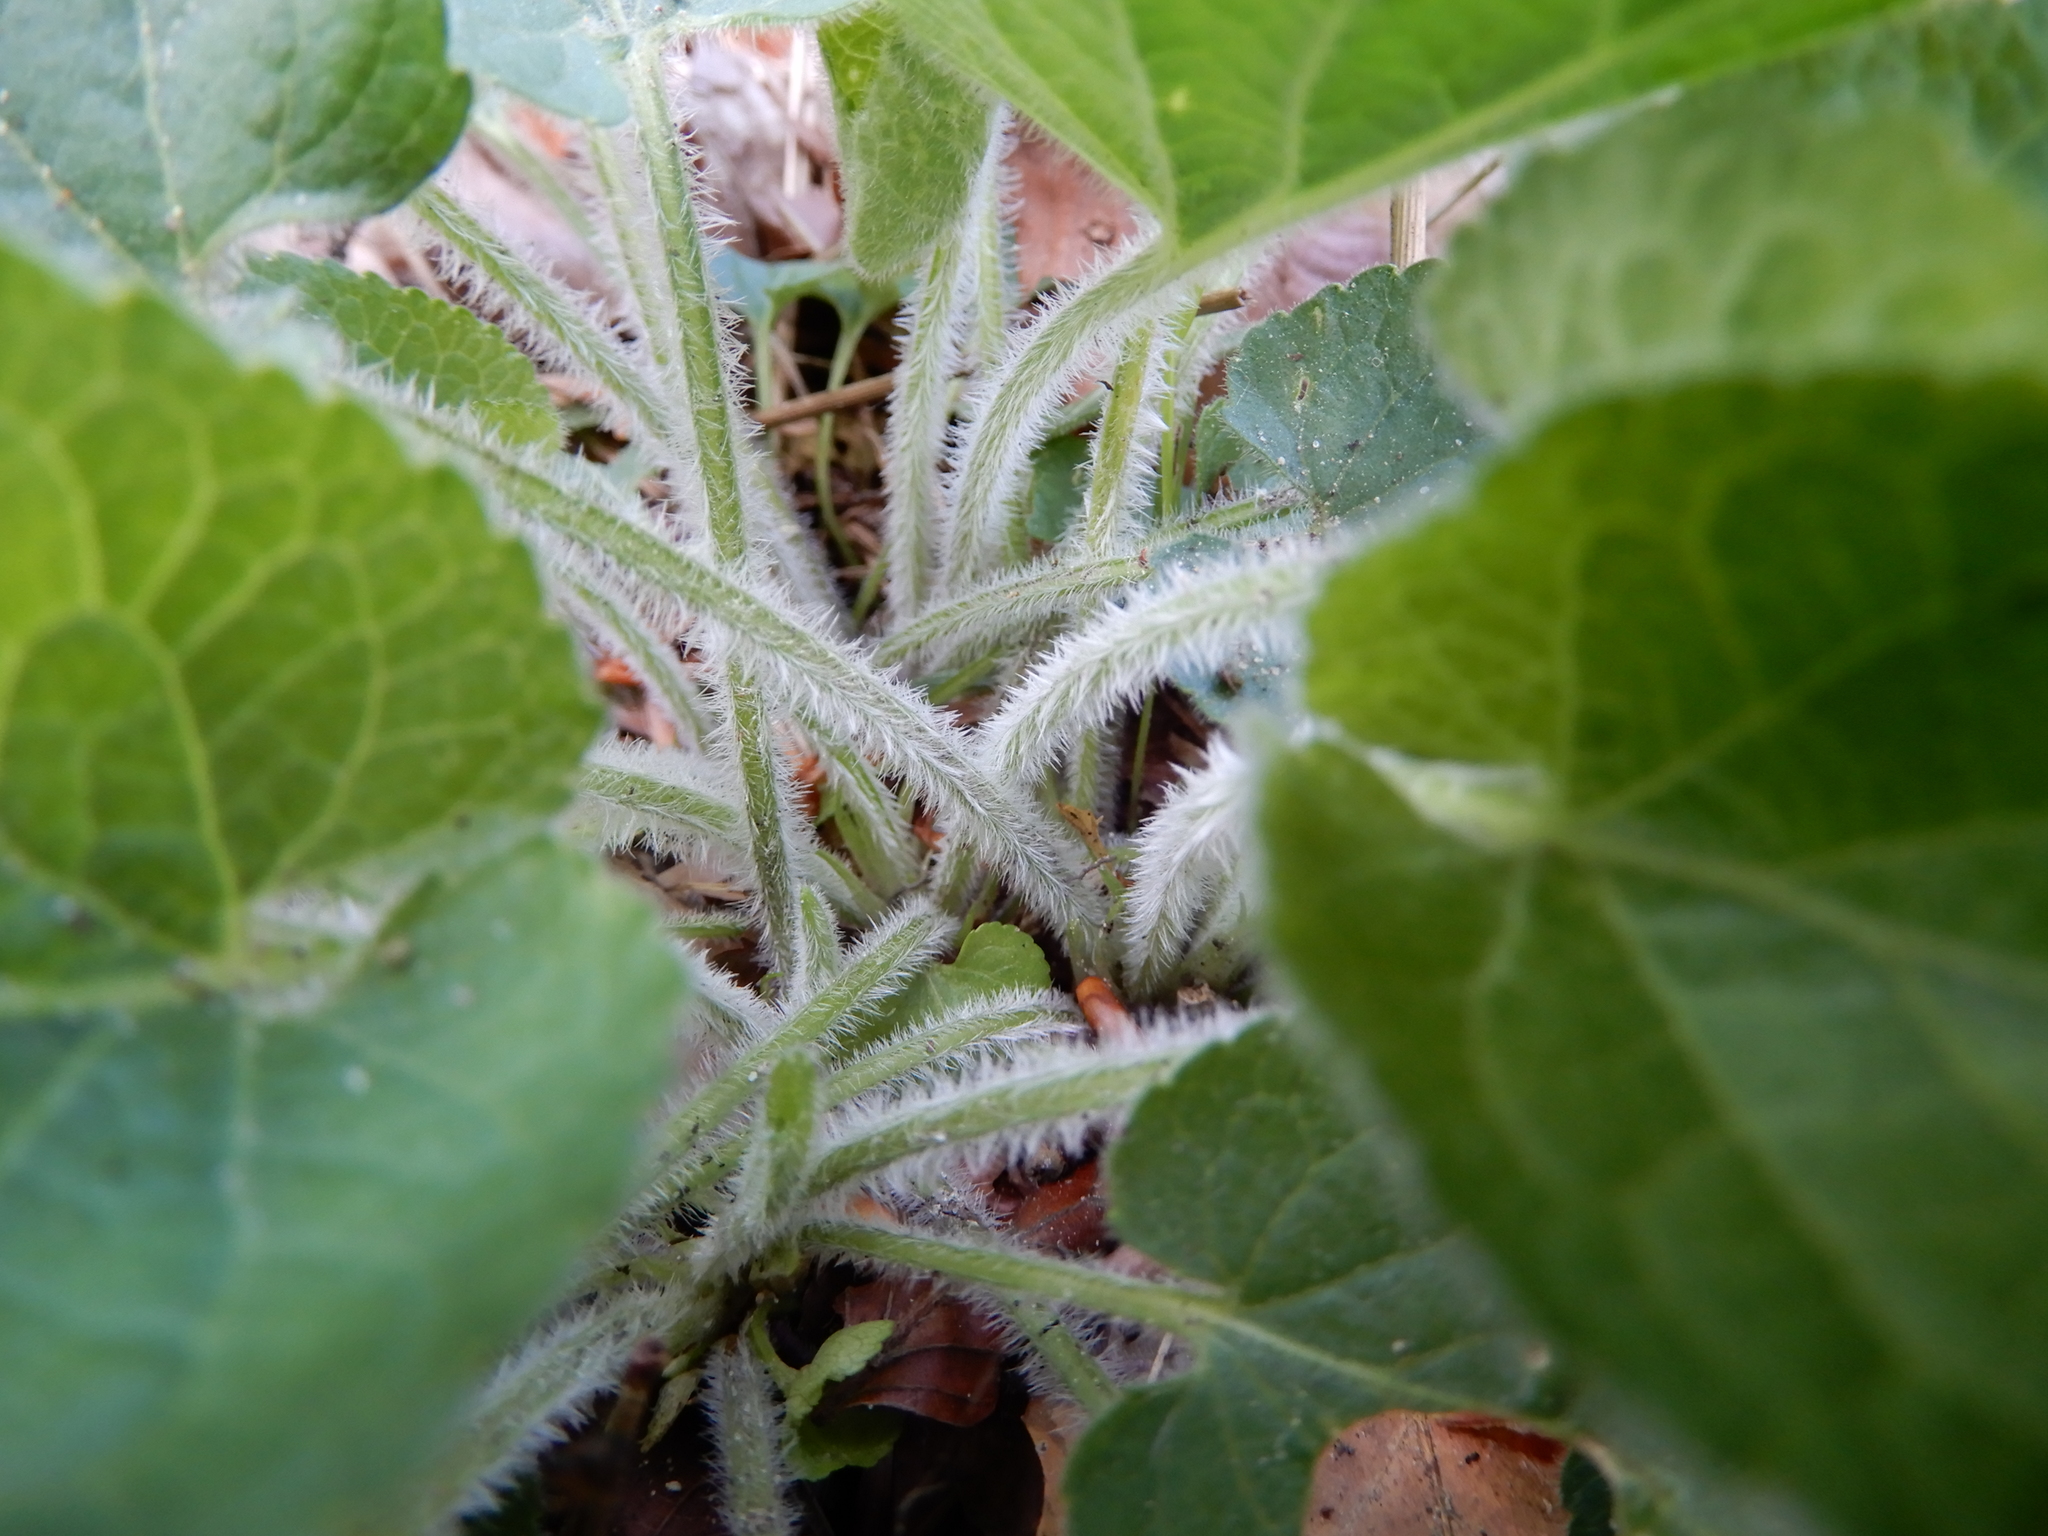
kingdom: Plantae
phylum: Tracheophyta
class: Magnoliopsida
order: Malpighiales
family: Violaceae
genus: Viola
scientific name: Viola hirta
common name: Hairy violet
